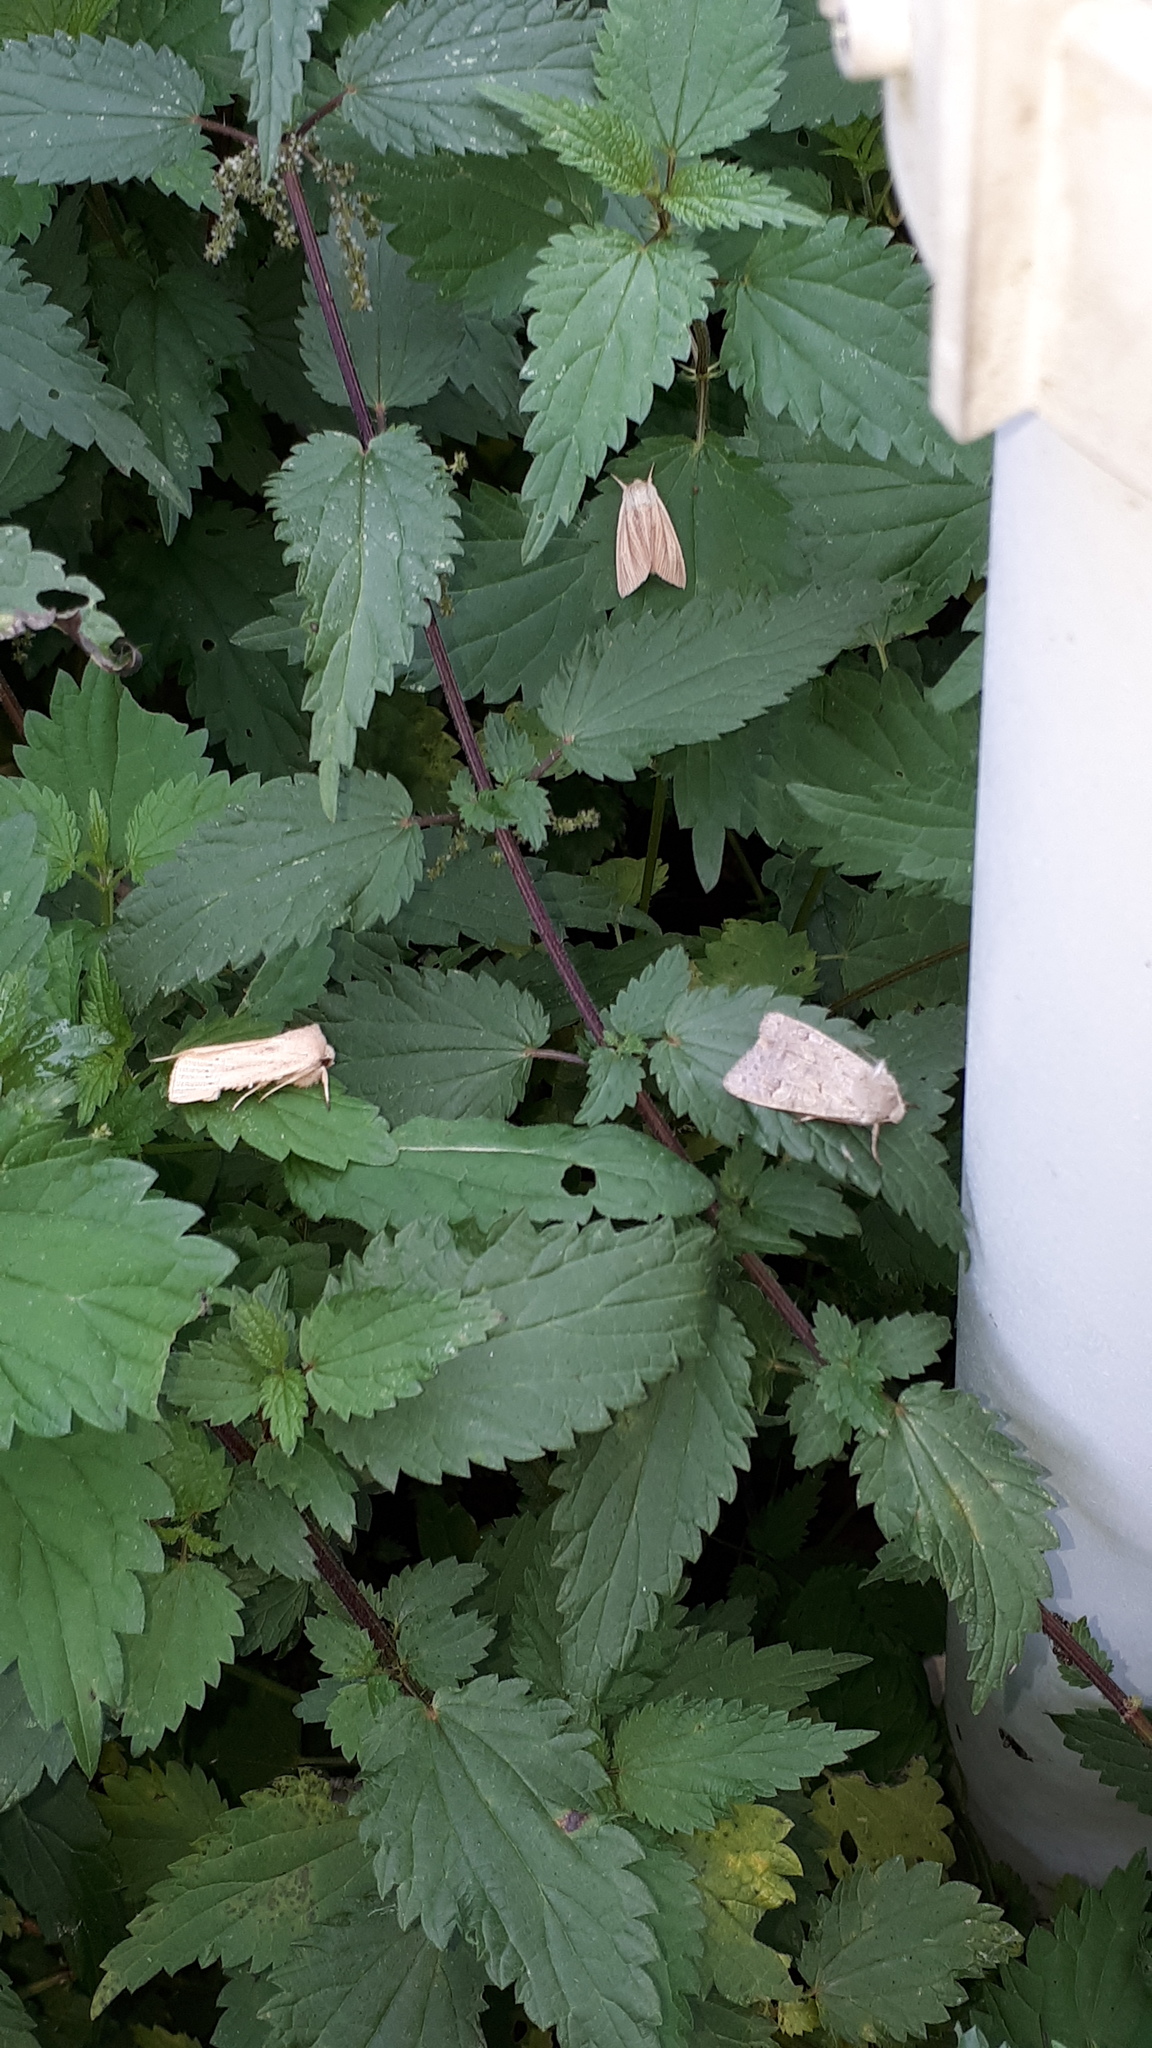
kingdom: Animalia
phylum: Arthropoda
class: Insecta
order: Lepidoptera
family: Noctuidae
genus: Sedina
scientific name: Sedina buettneri
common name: Blair's wainscot
